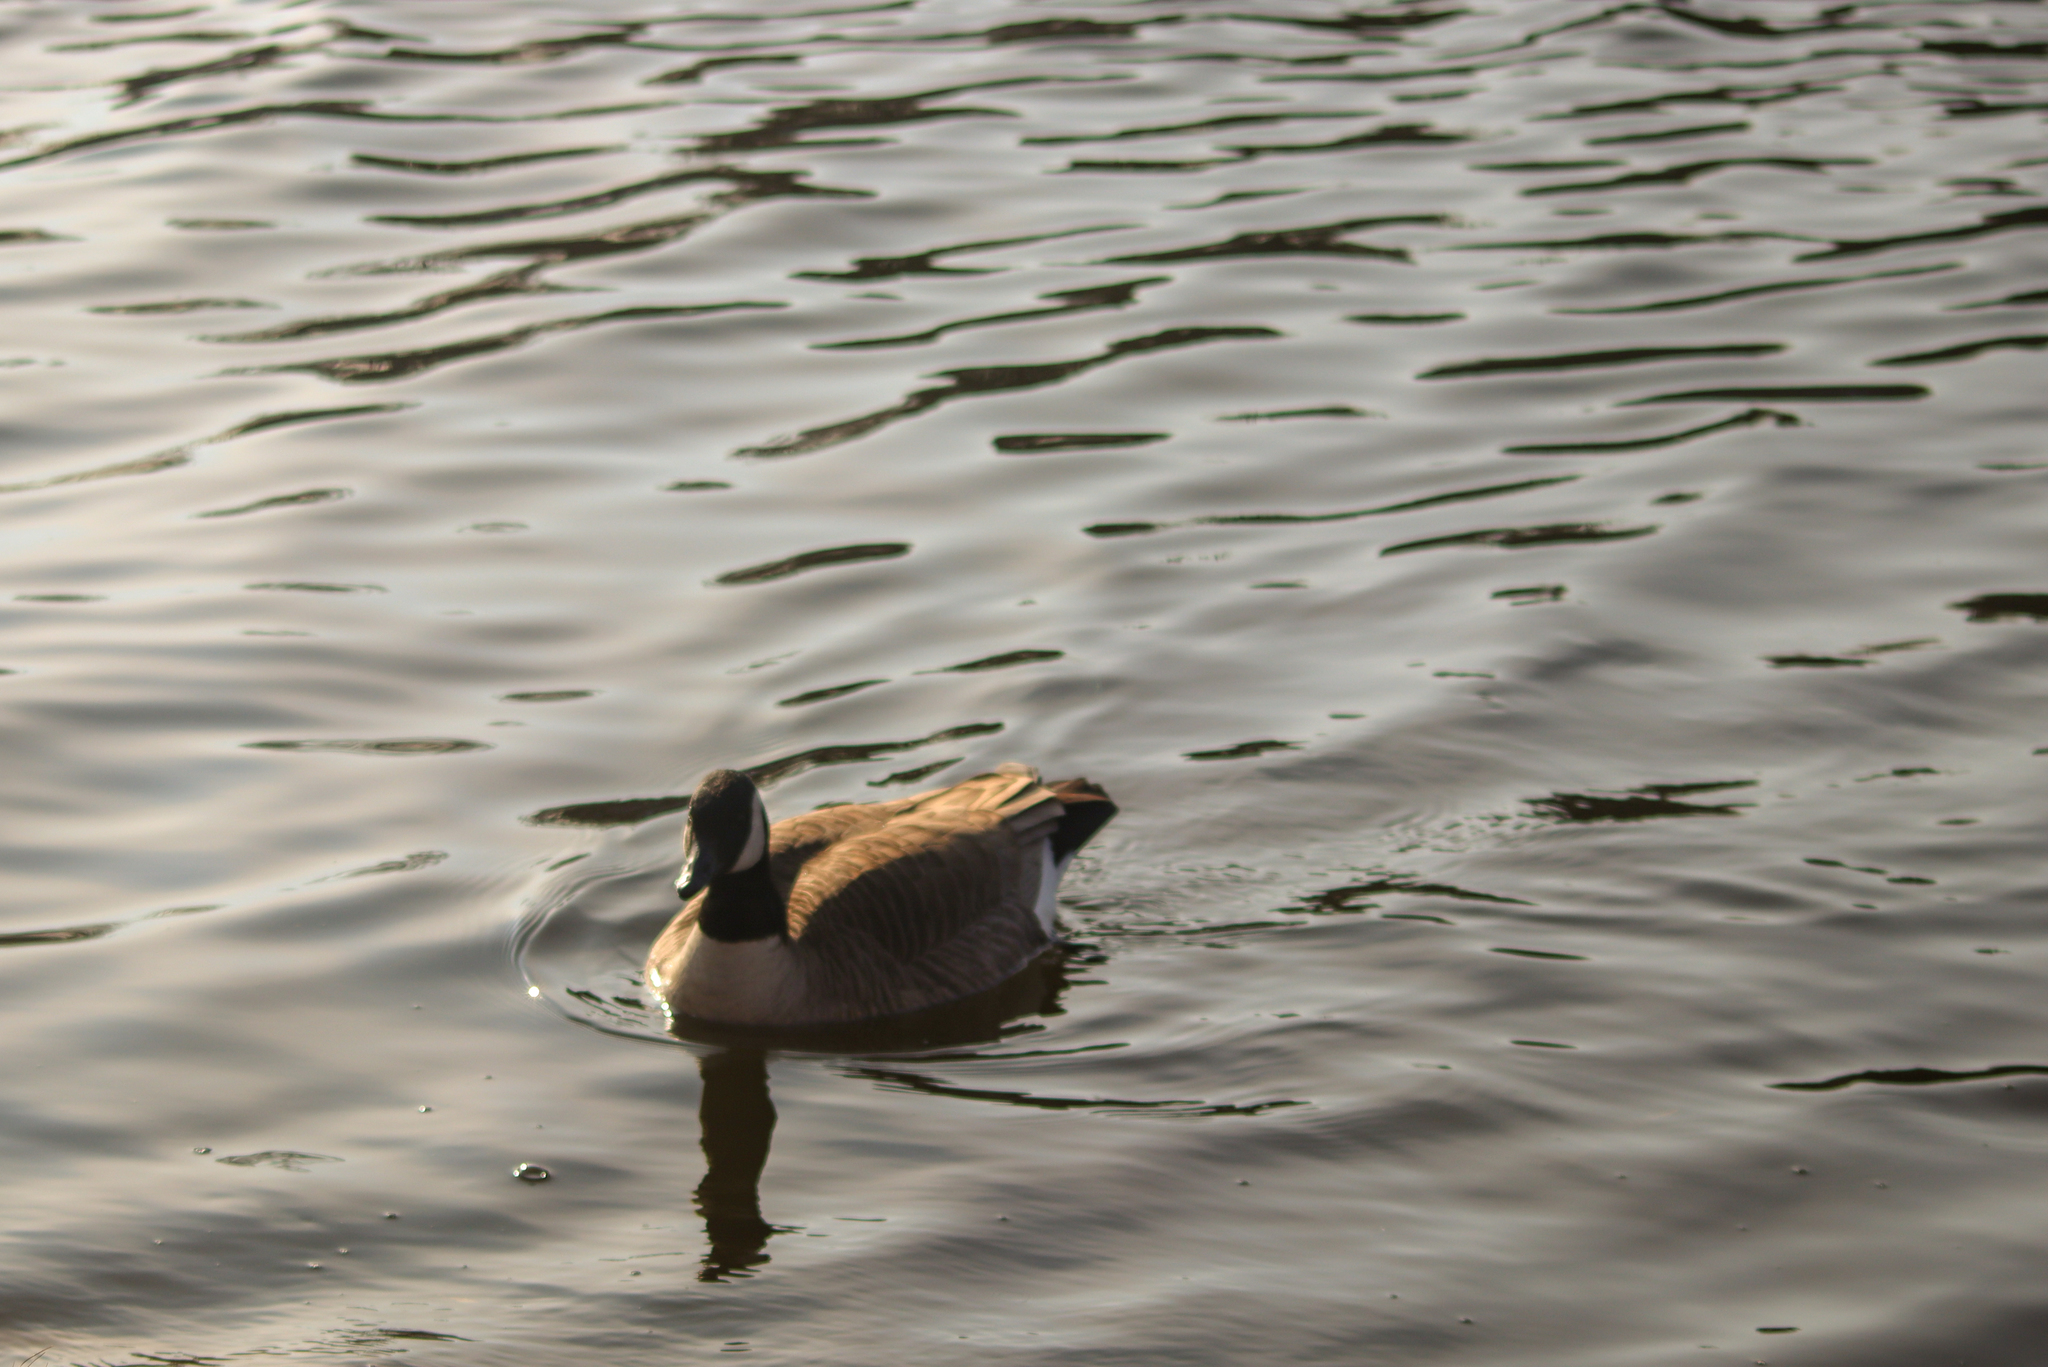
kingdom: Animalia
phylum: Chordata
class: Aves
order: Anseriformes
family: Anatidae
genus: Branta
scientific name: Branta canadensis
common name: Canada goose
